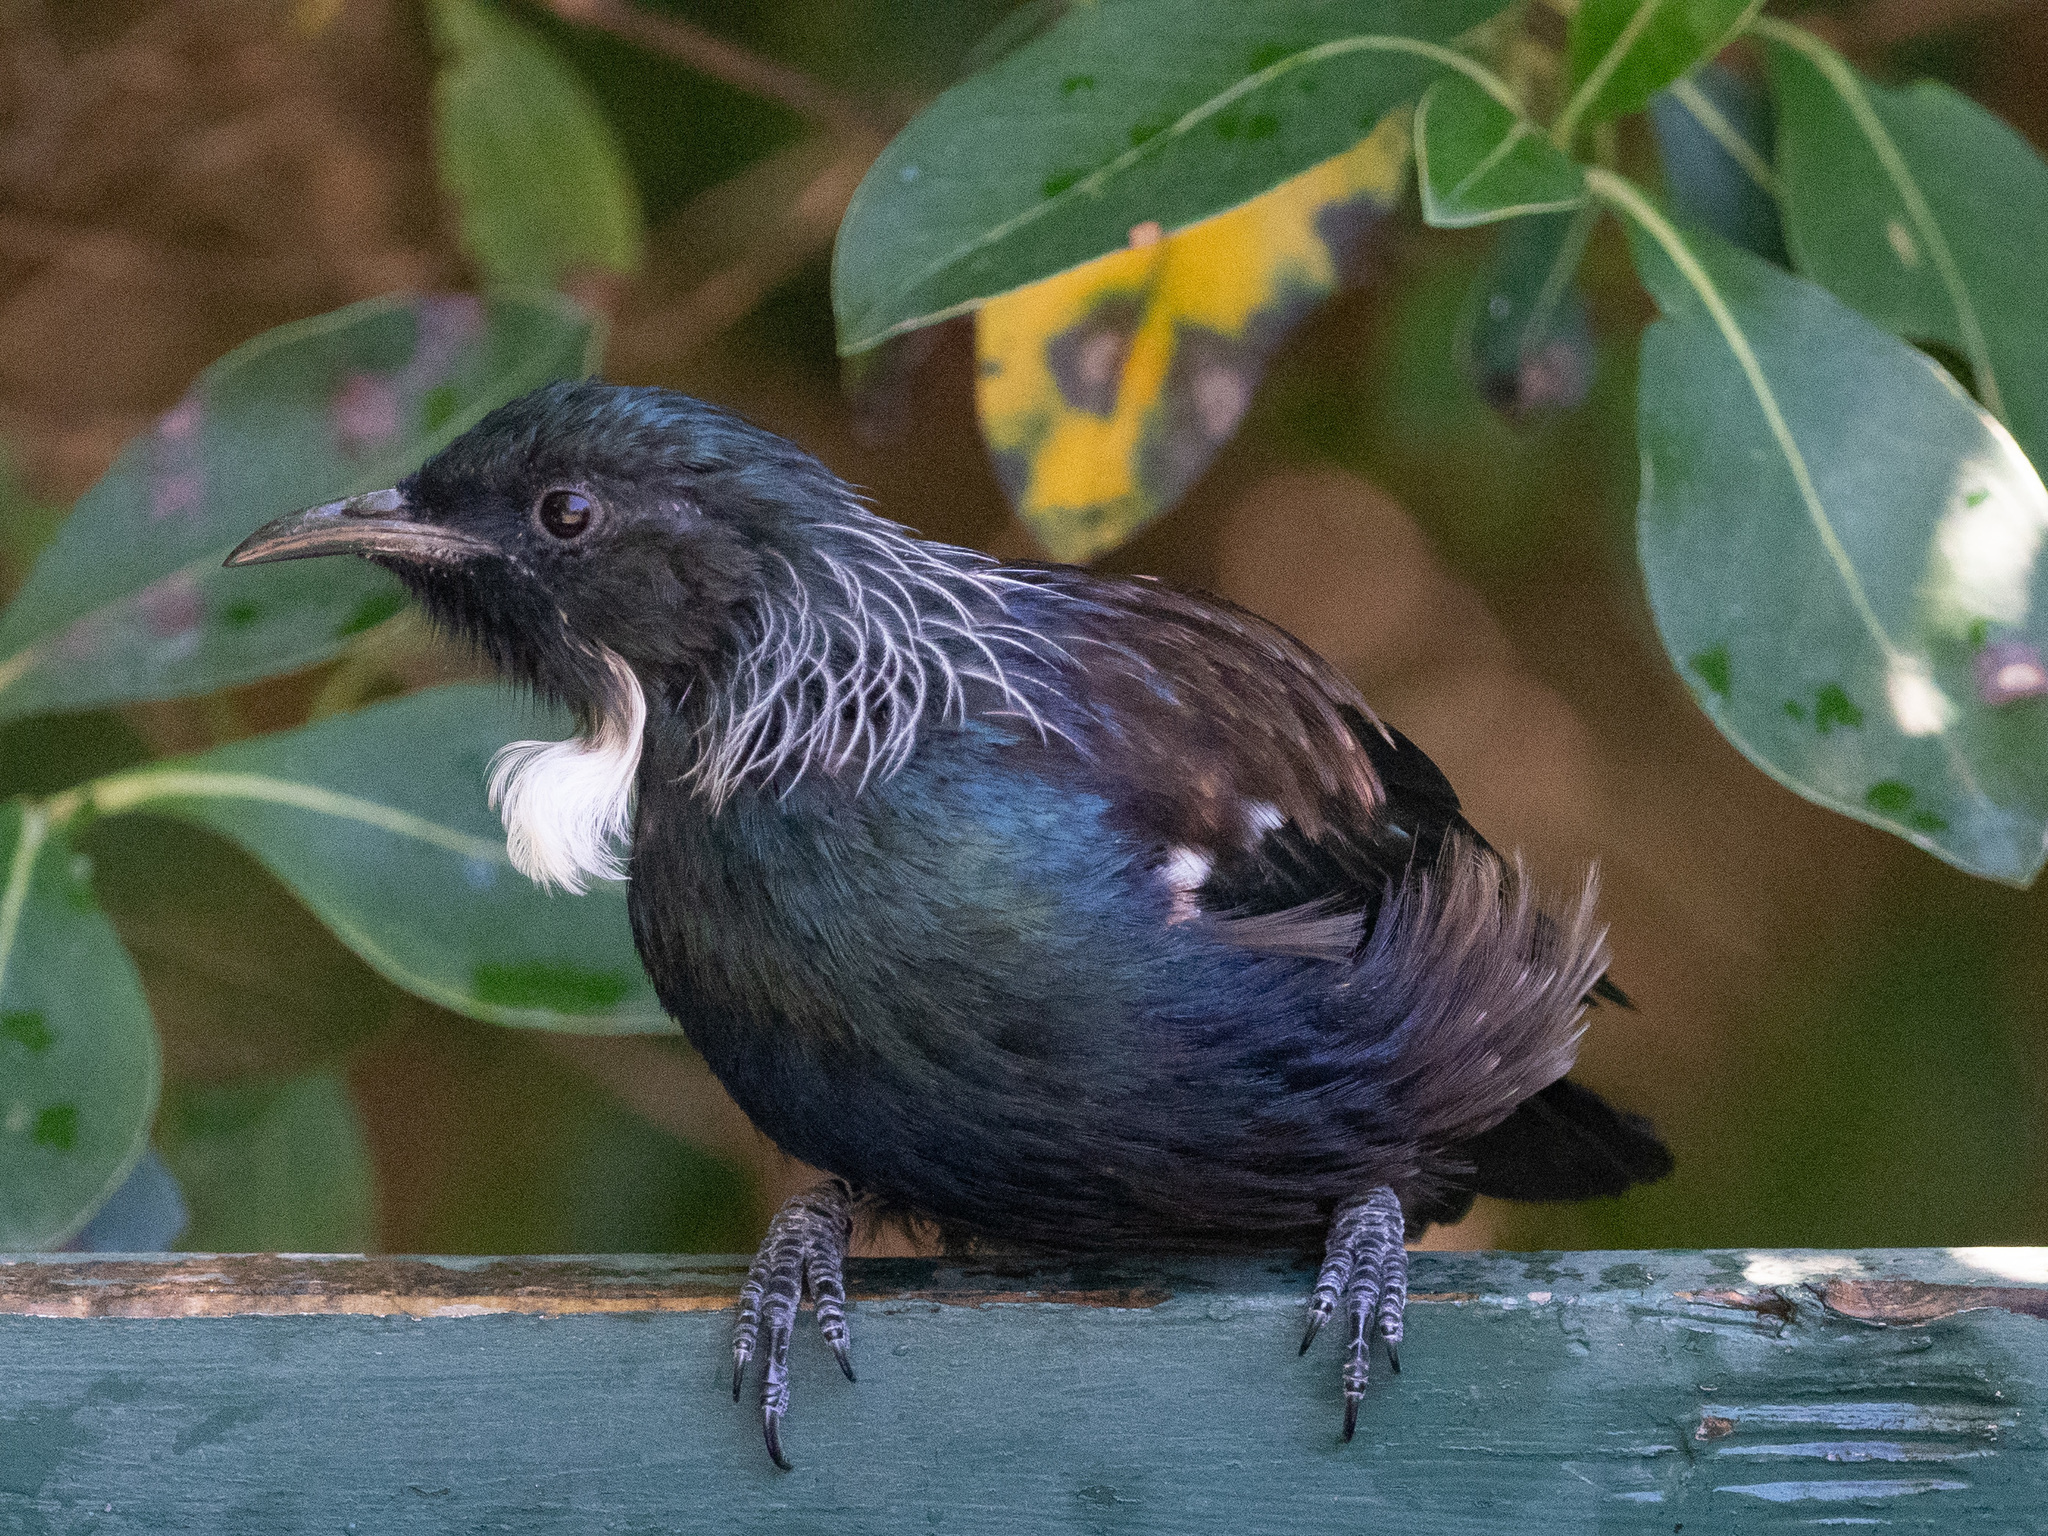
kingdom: Animalia
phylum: Chordata
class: Aves
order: Passeriformes
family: Meliphagidae
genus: Prosthemadera
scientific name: Prosthemadera novaeseelandiae
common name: Tui
